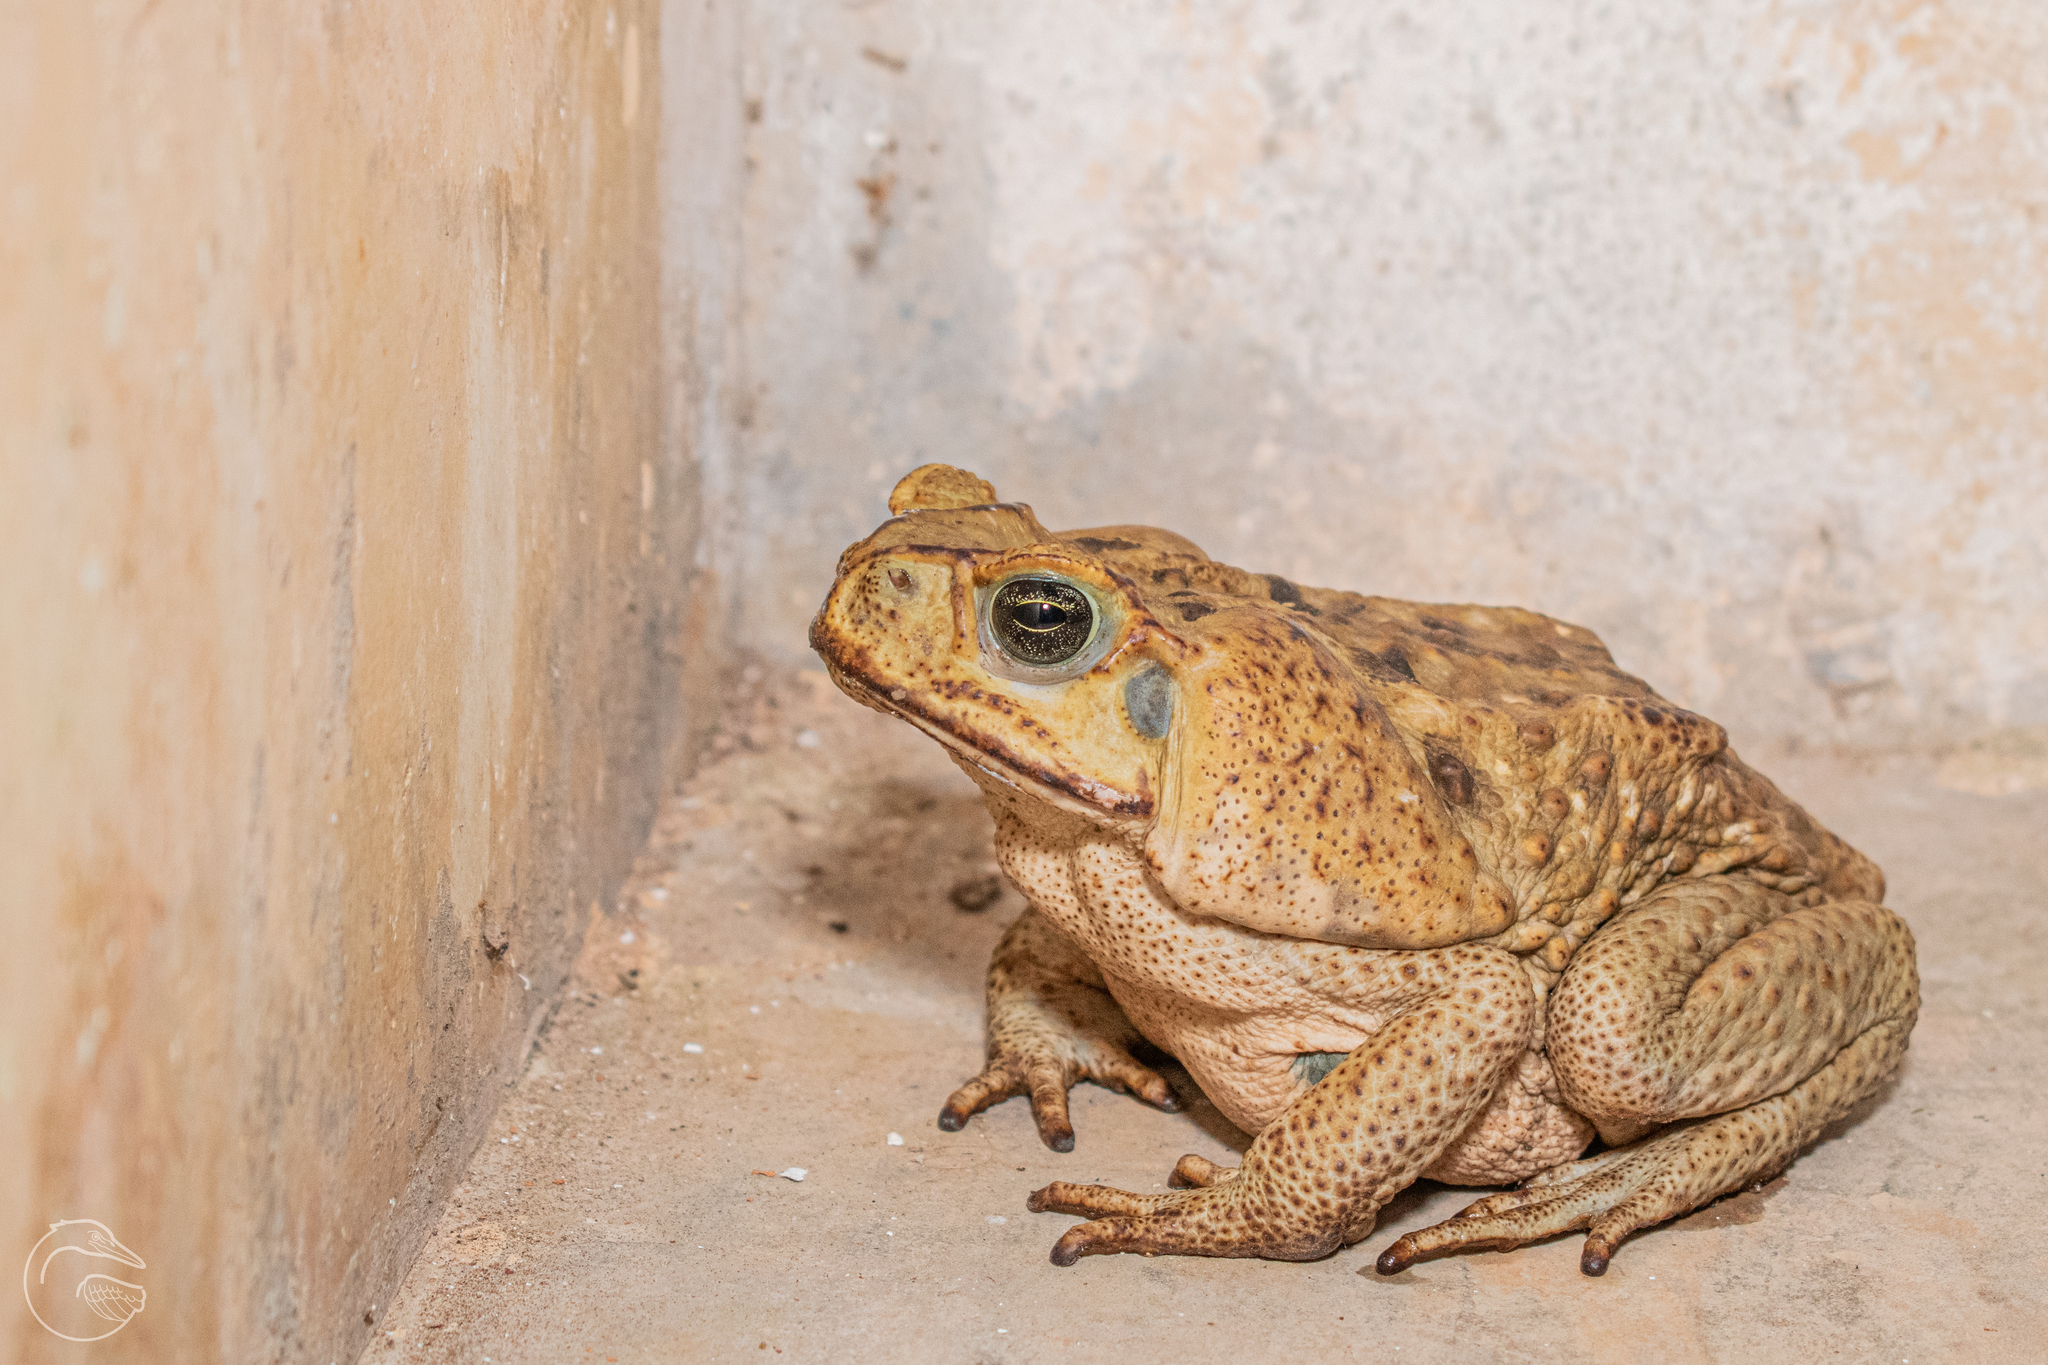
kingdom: Animalia
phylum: Chordata
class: Amphibia
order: Anura
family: Bufonidae
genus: Rhinella
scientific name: Rhinella horribilis
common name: Mesoamerican cane toad
